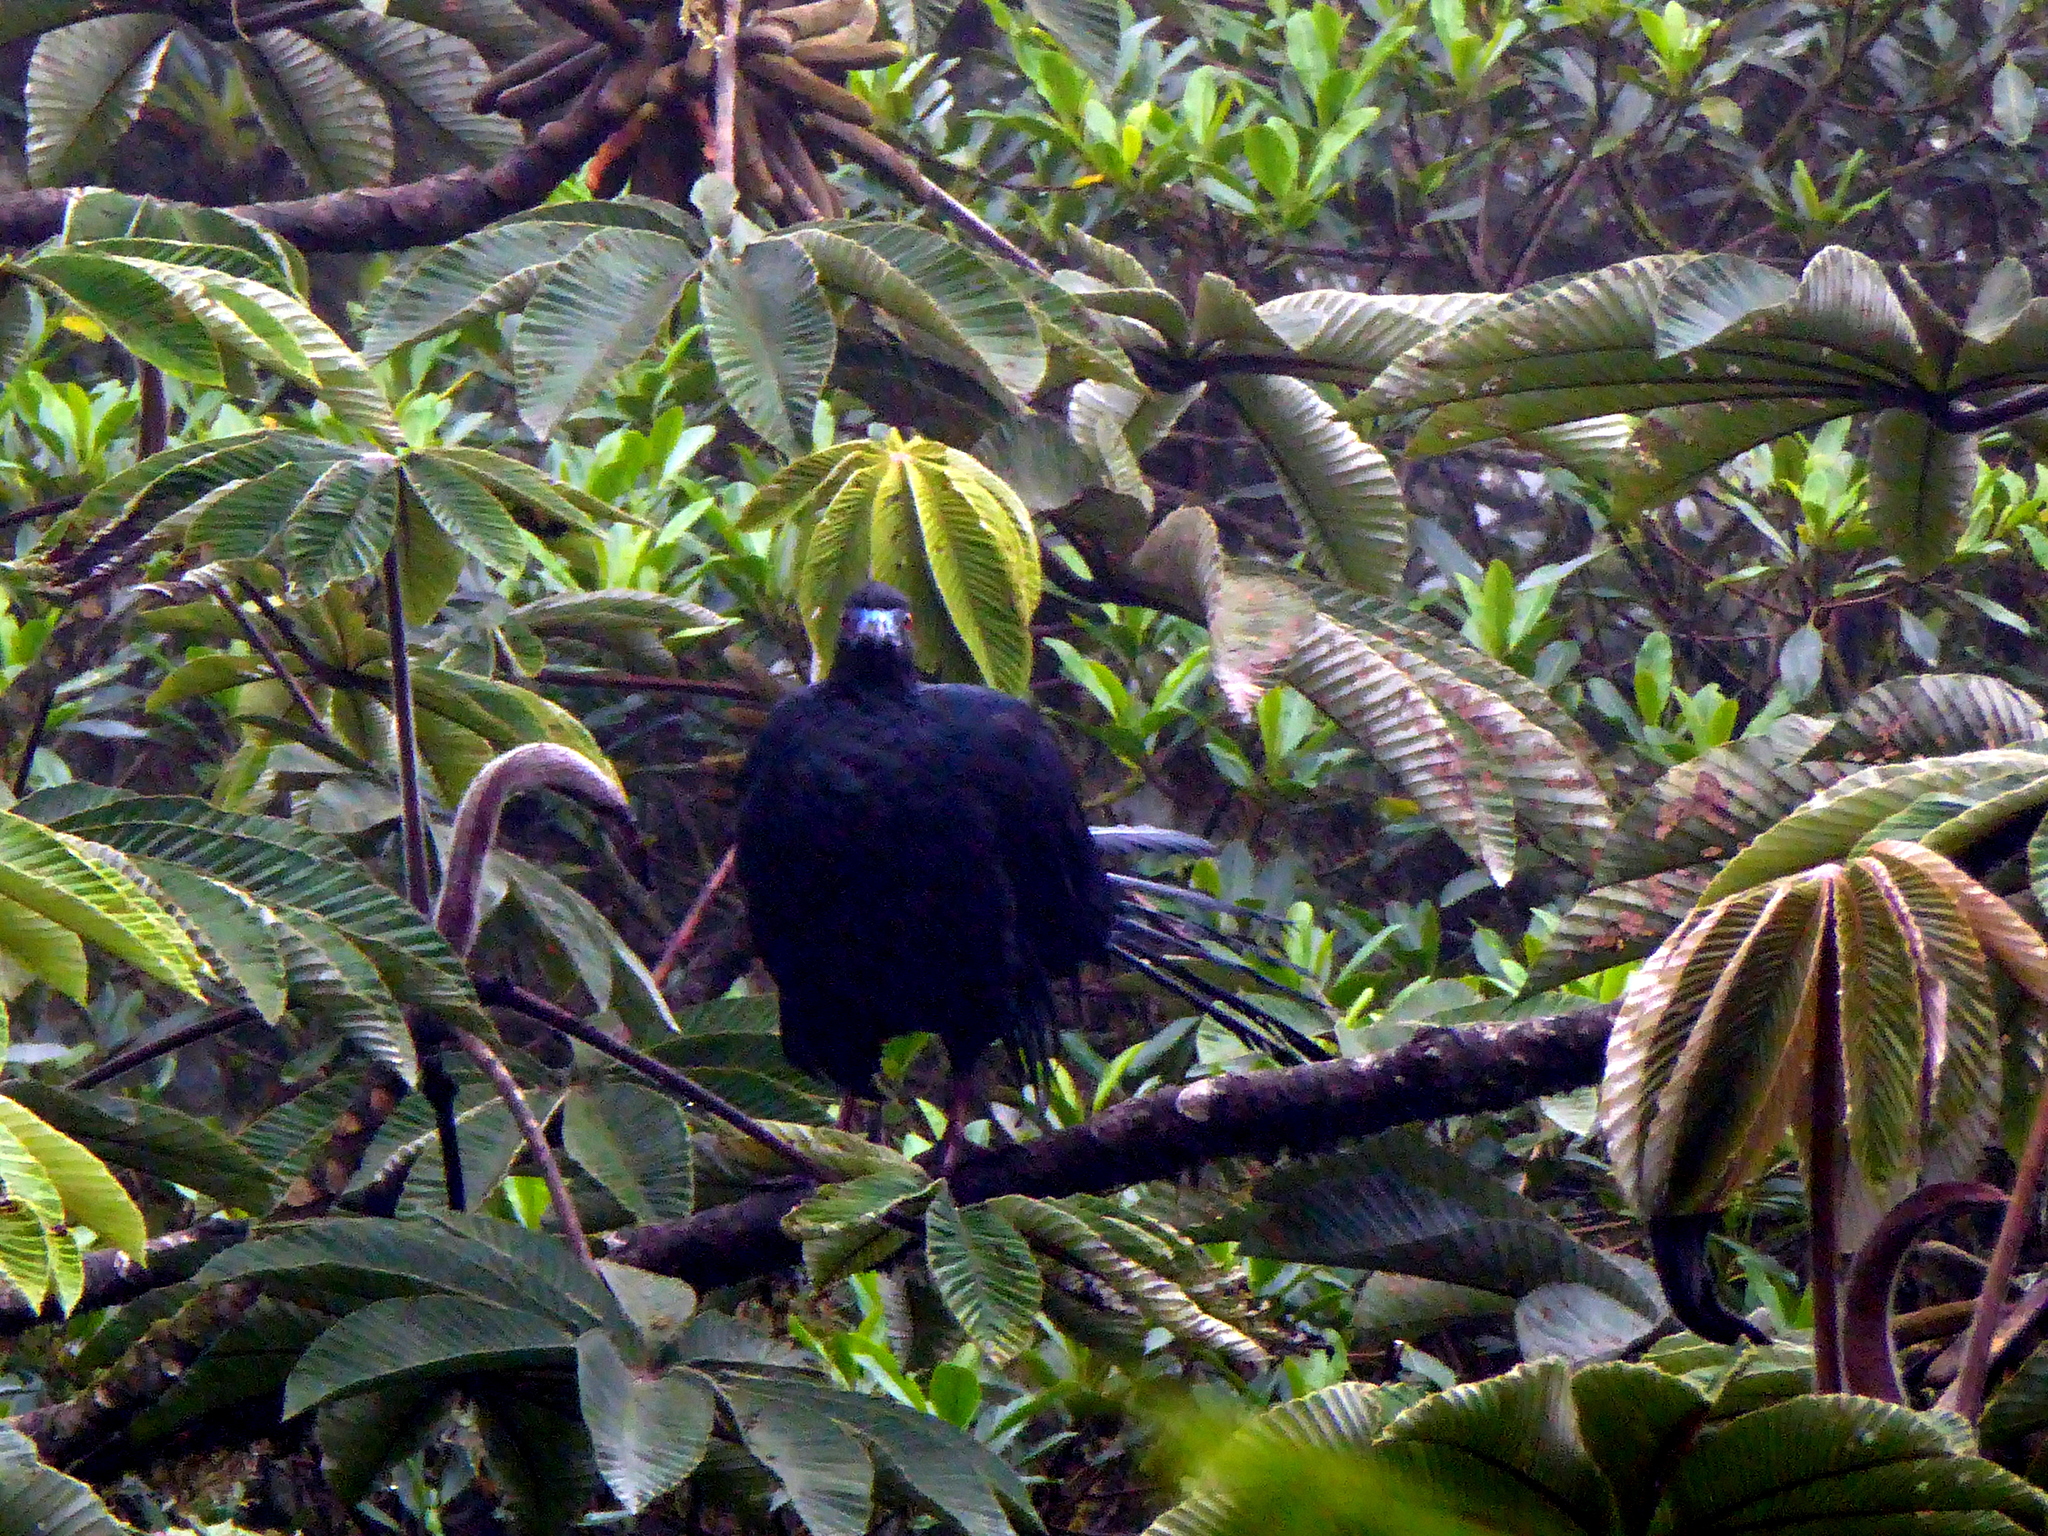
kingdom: Animalia
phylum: Chordata
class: Aves
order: Galliformes
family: Cracidae
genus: Chamaepetes
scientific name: Chamaepetes unicolor
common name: Black guan
